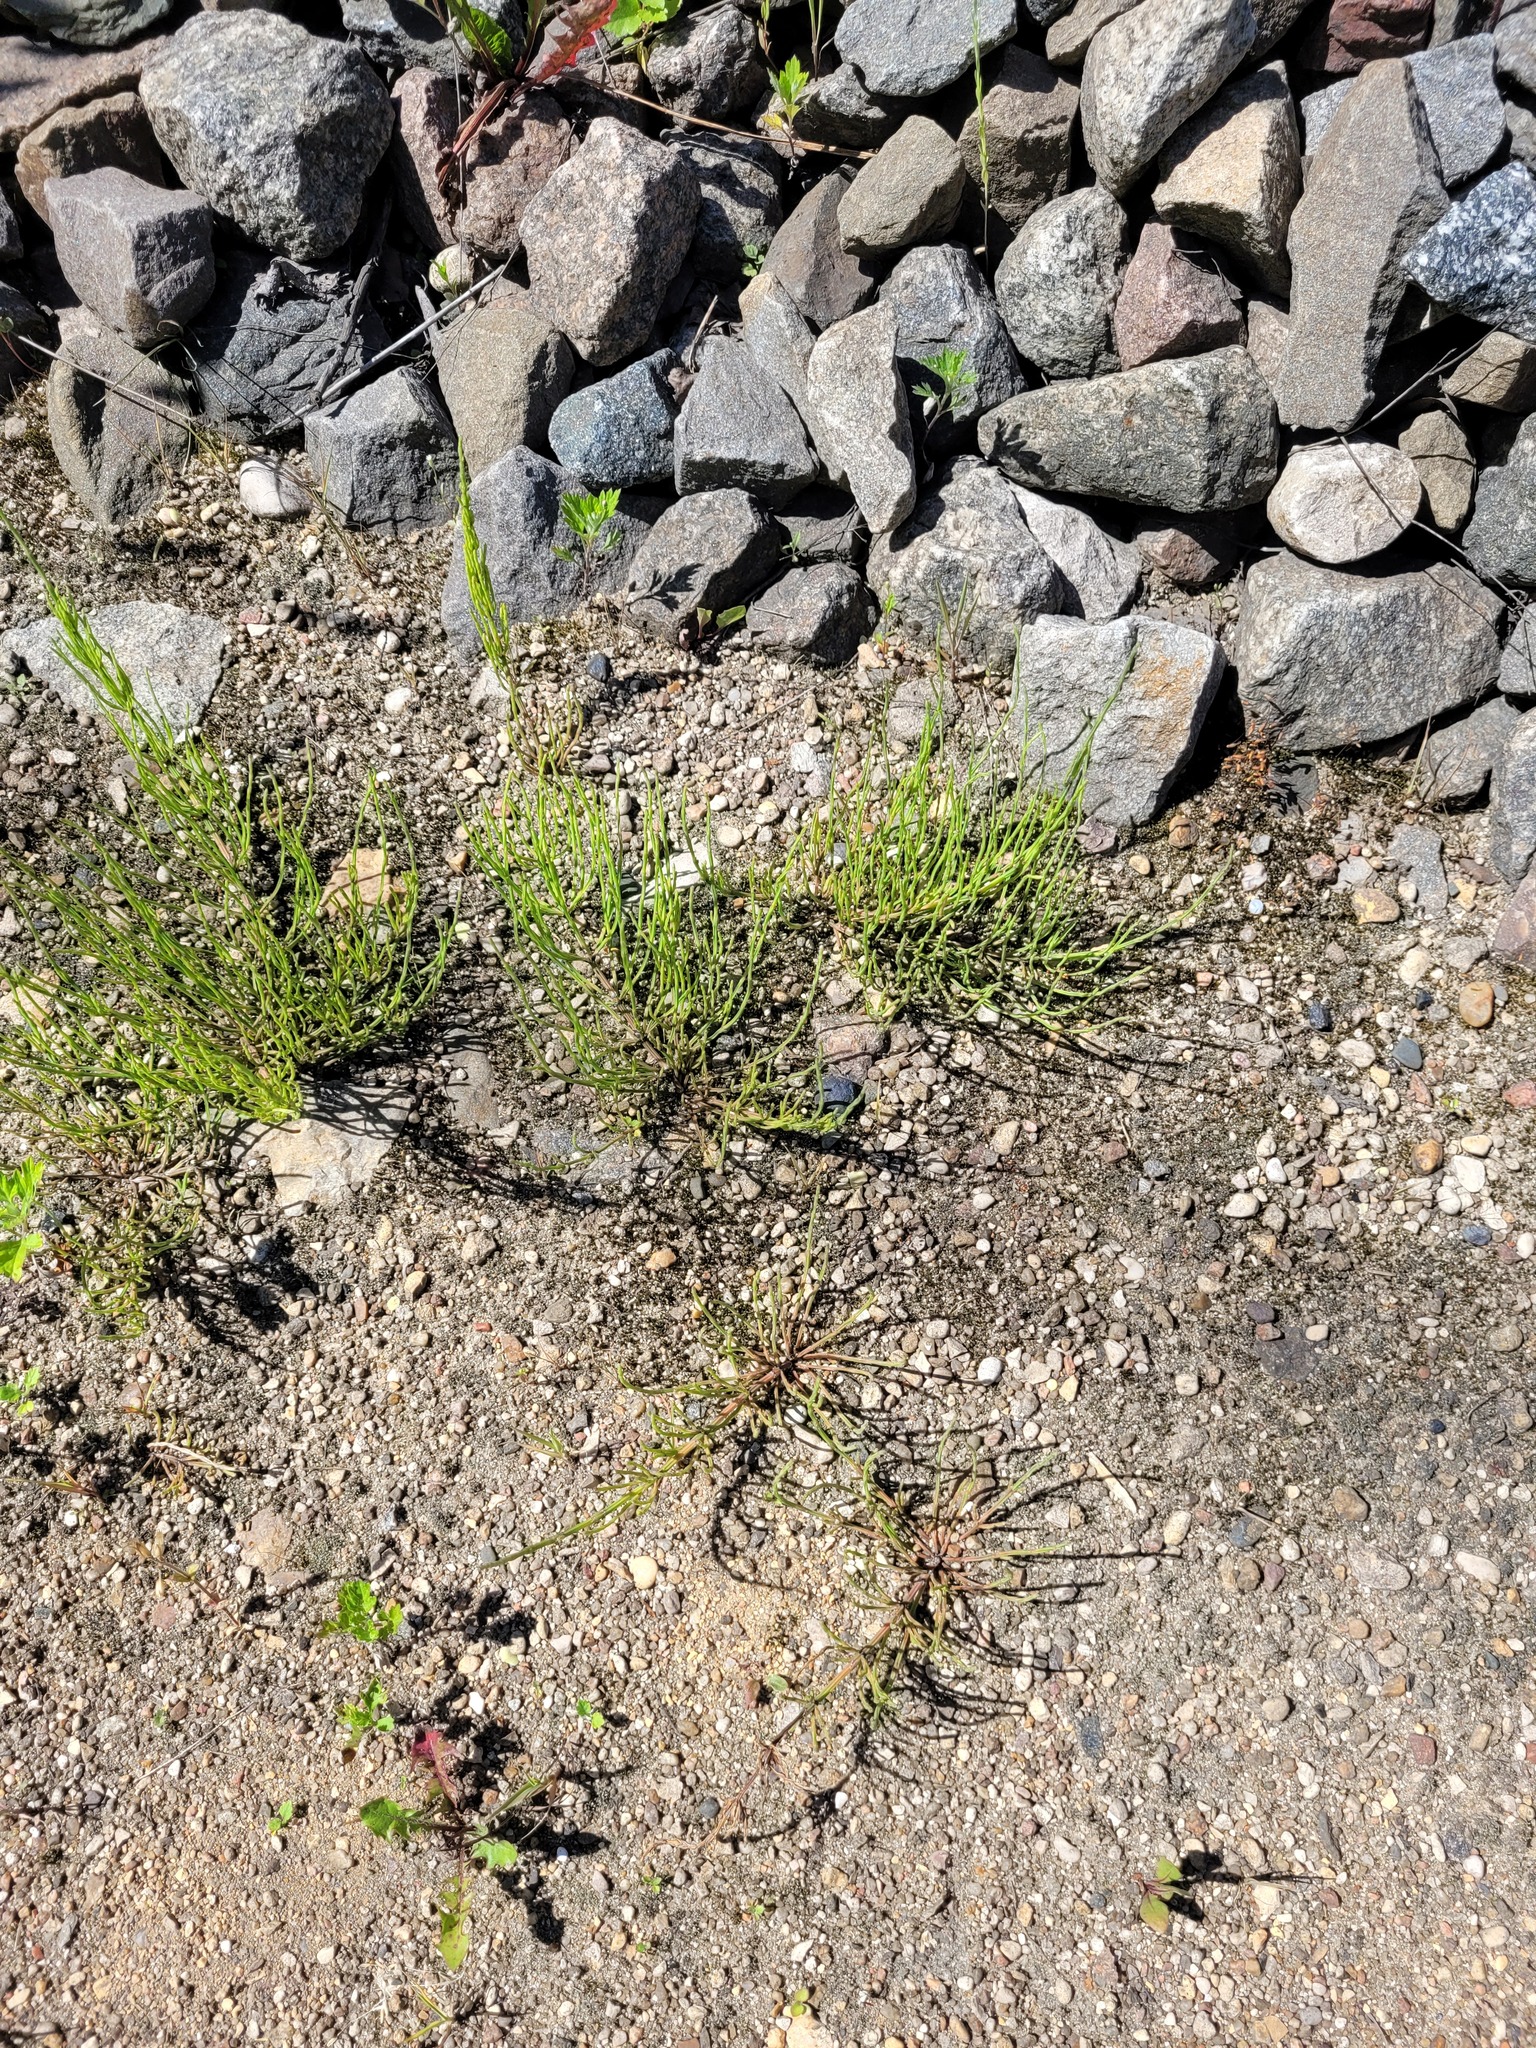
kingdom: Plantae
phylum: Tracheophyta
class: Polypodiopsida
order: Equisetales
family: Equisetaceae
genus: Equisetum
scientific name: Equisetum arvense
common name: Field horsetail
